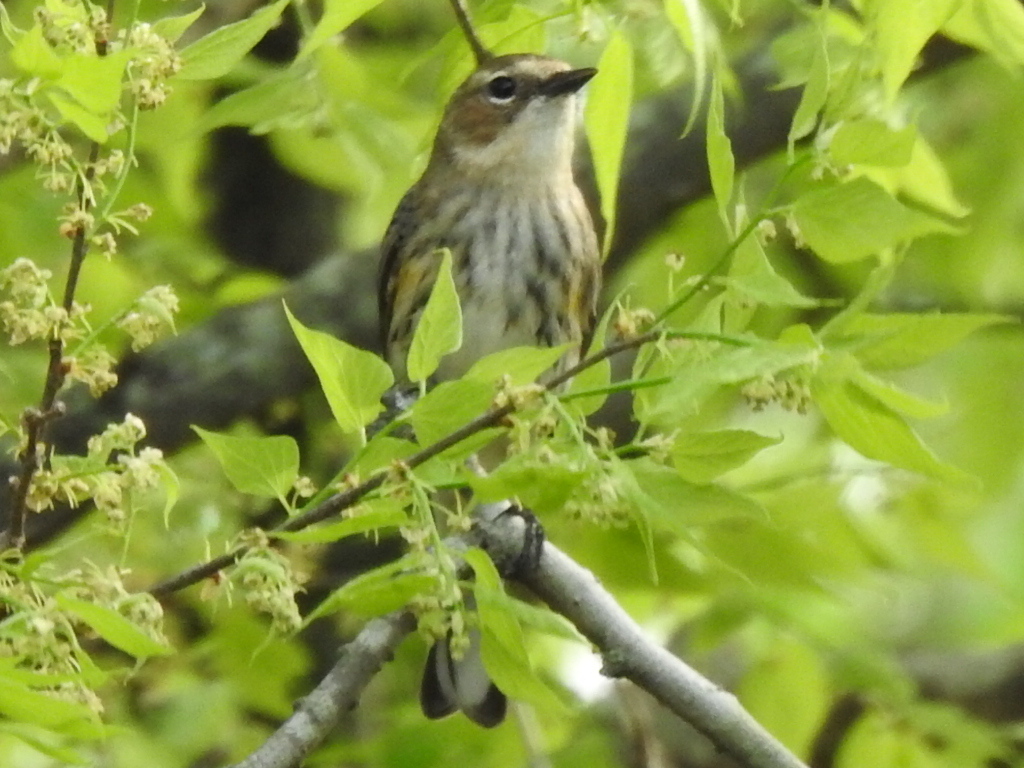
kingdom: Animalia
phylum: Chordata
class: Aves
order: Passeriformes
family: Parulidae
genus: Setophaga
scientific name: Setophaga coronata
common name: Myrtle warbler
